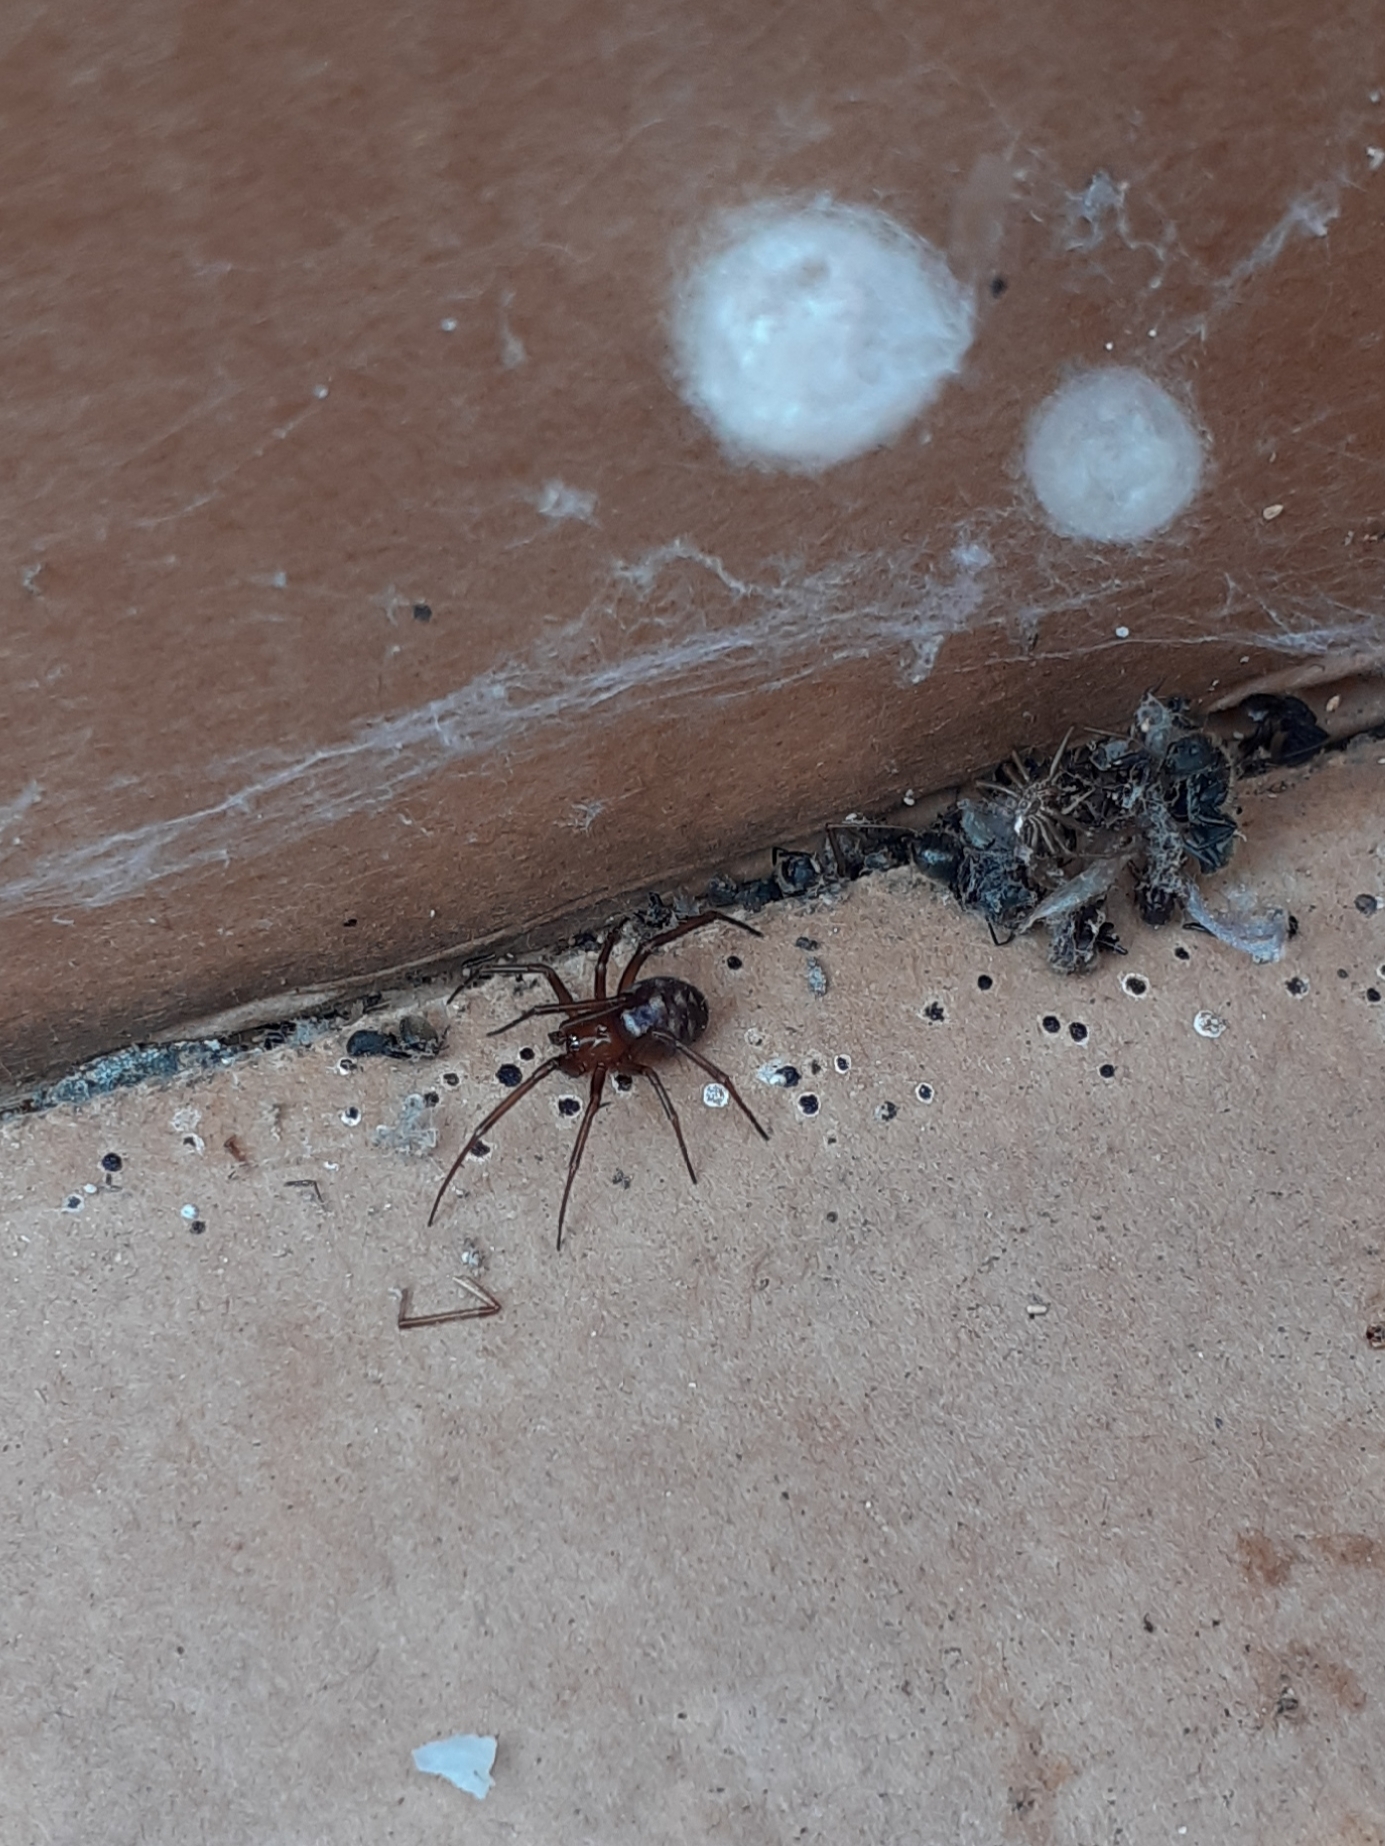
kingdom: Animalia
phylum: Arthropoda
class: Arachnida
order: Araneae
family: Theridiidae
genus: Steatoda
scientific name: Steatoda grossa
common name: False black widow
